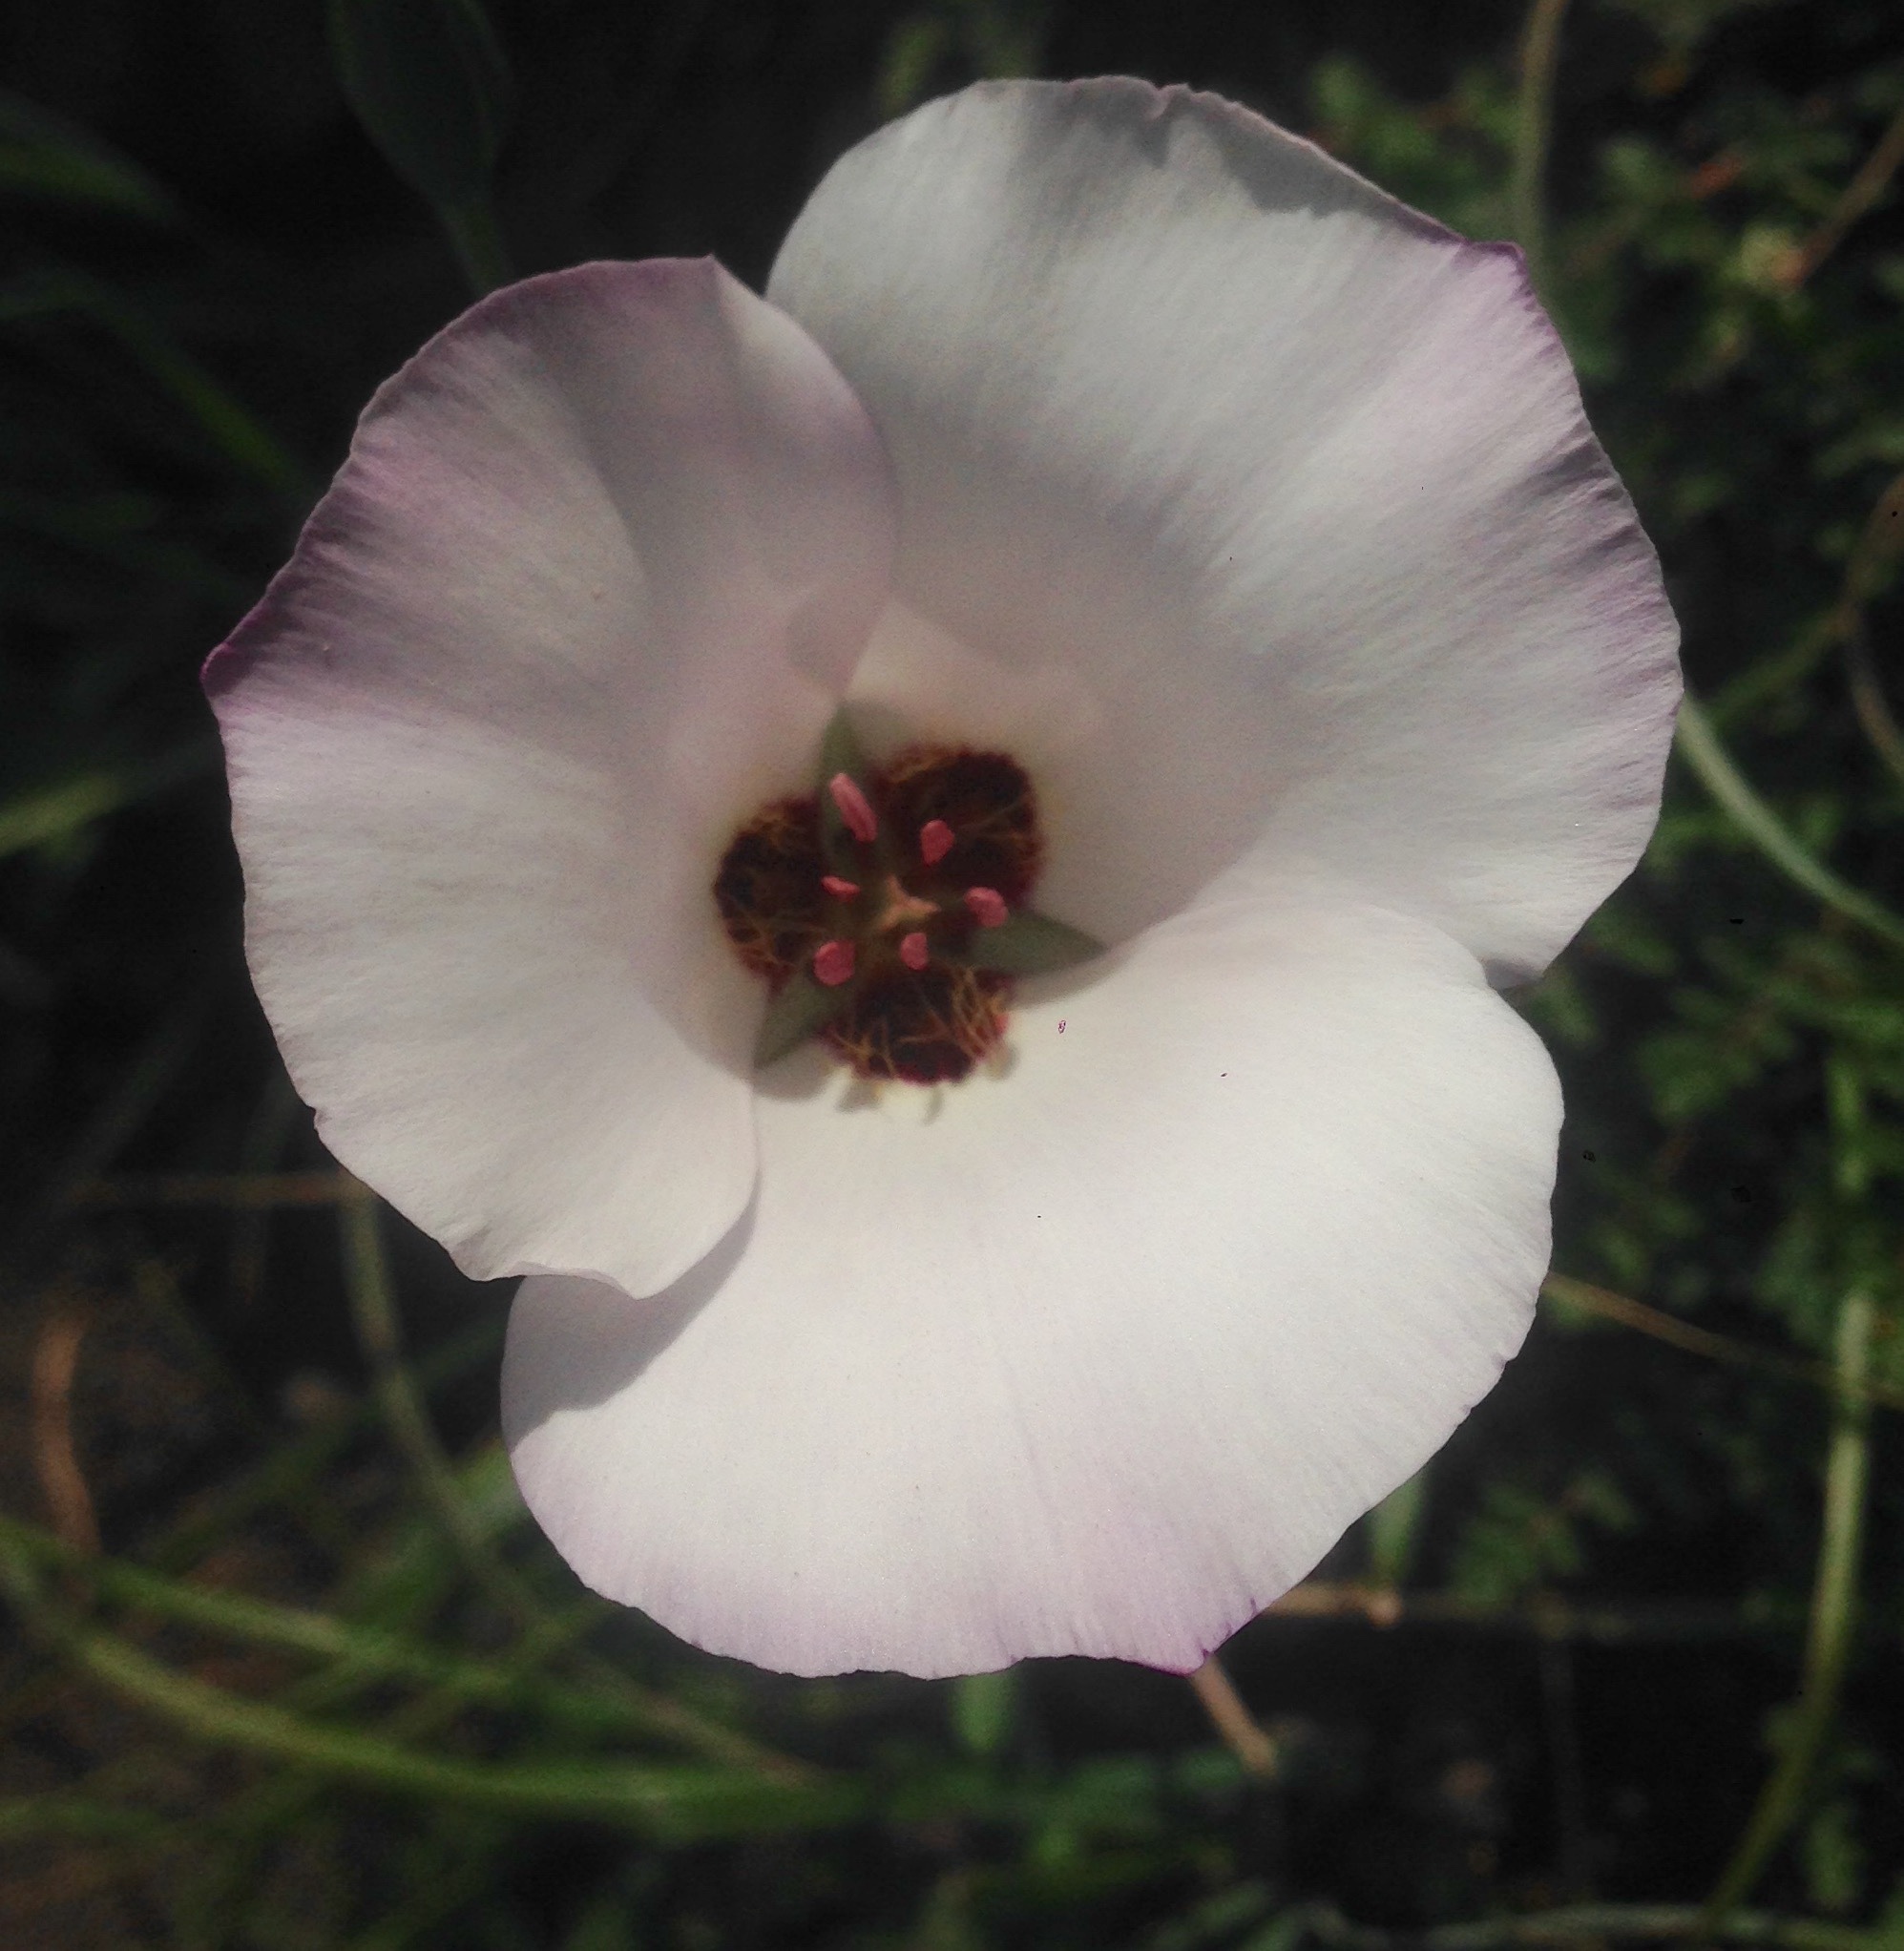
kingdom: Plantae
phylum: Tracheophyta
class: Liliopsida
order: Liliales
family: Liliaceae
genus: Calochortus
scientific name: Calochortus catalinae
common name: Catalina mariposa-lily
